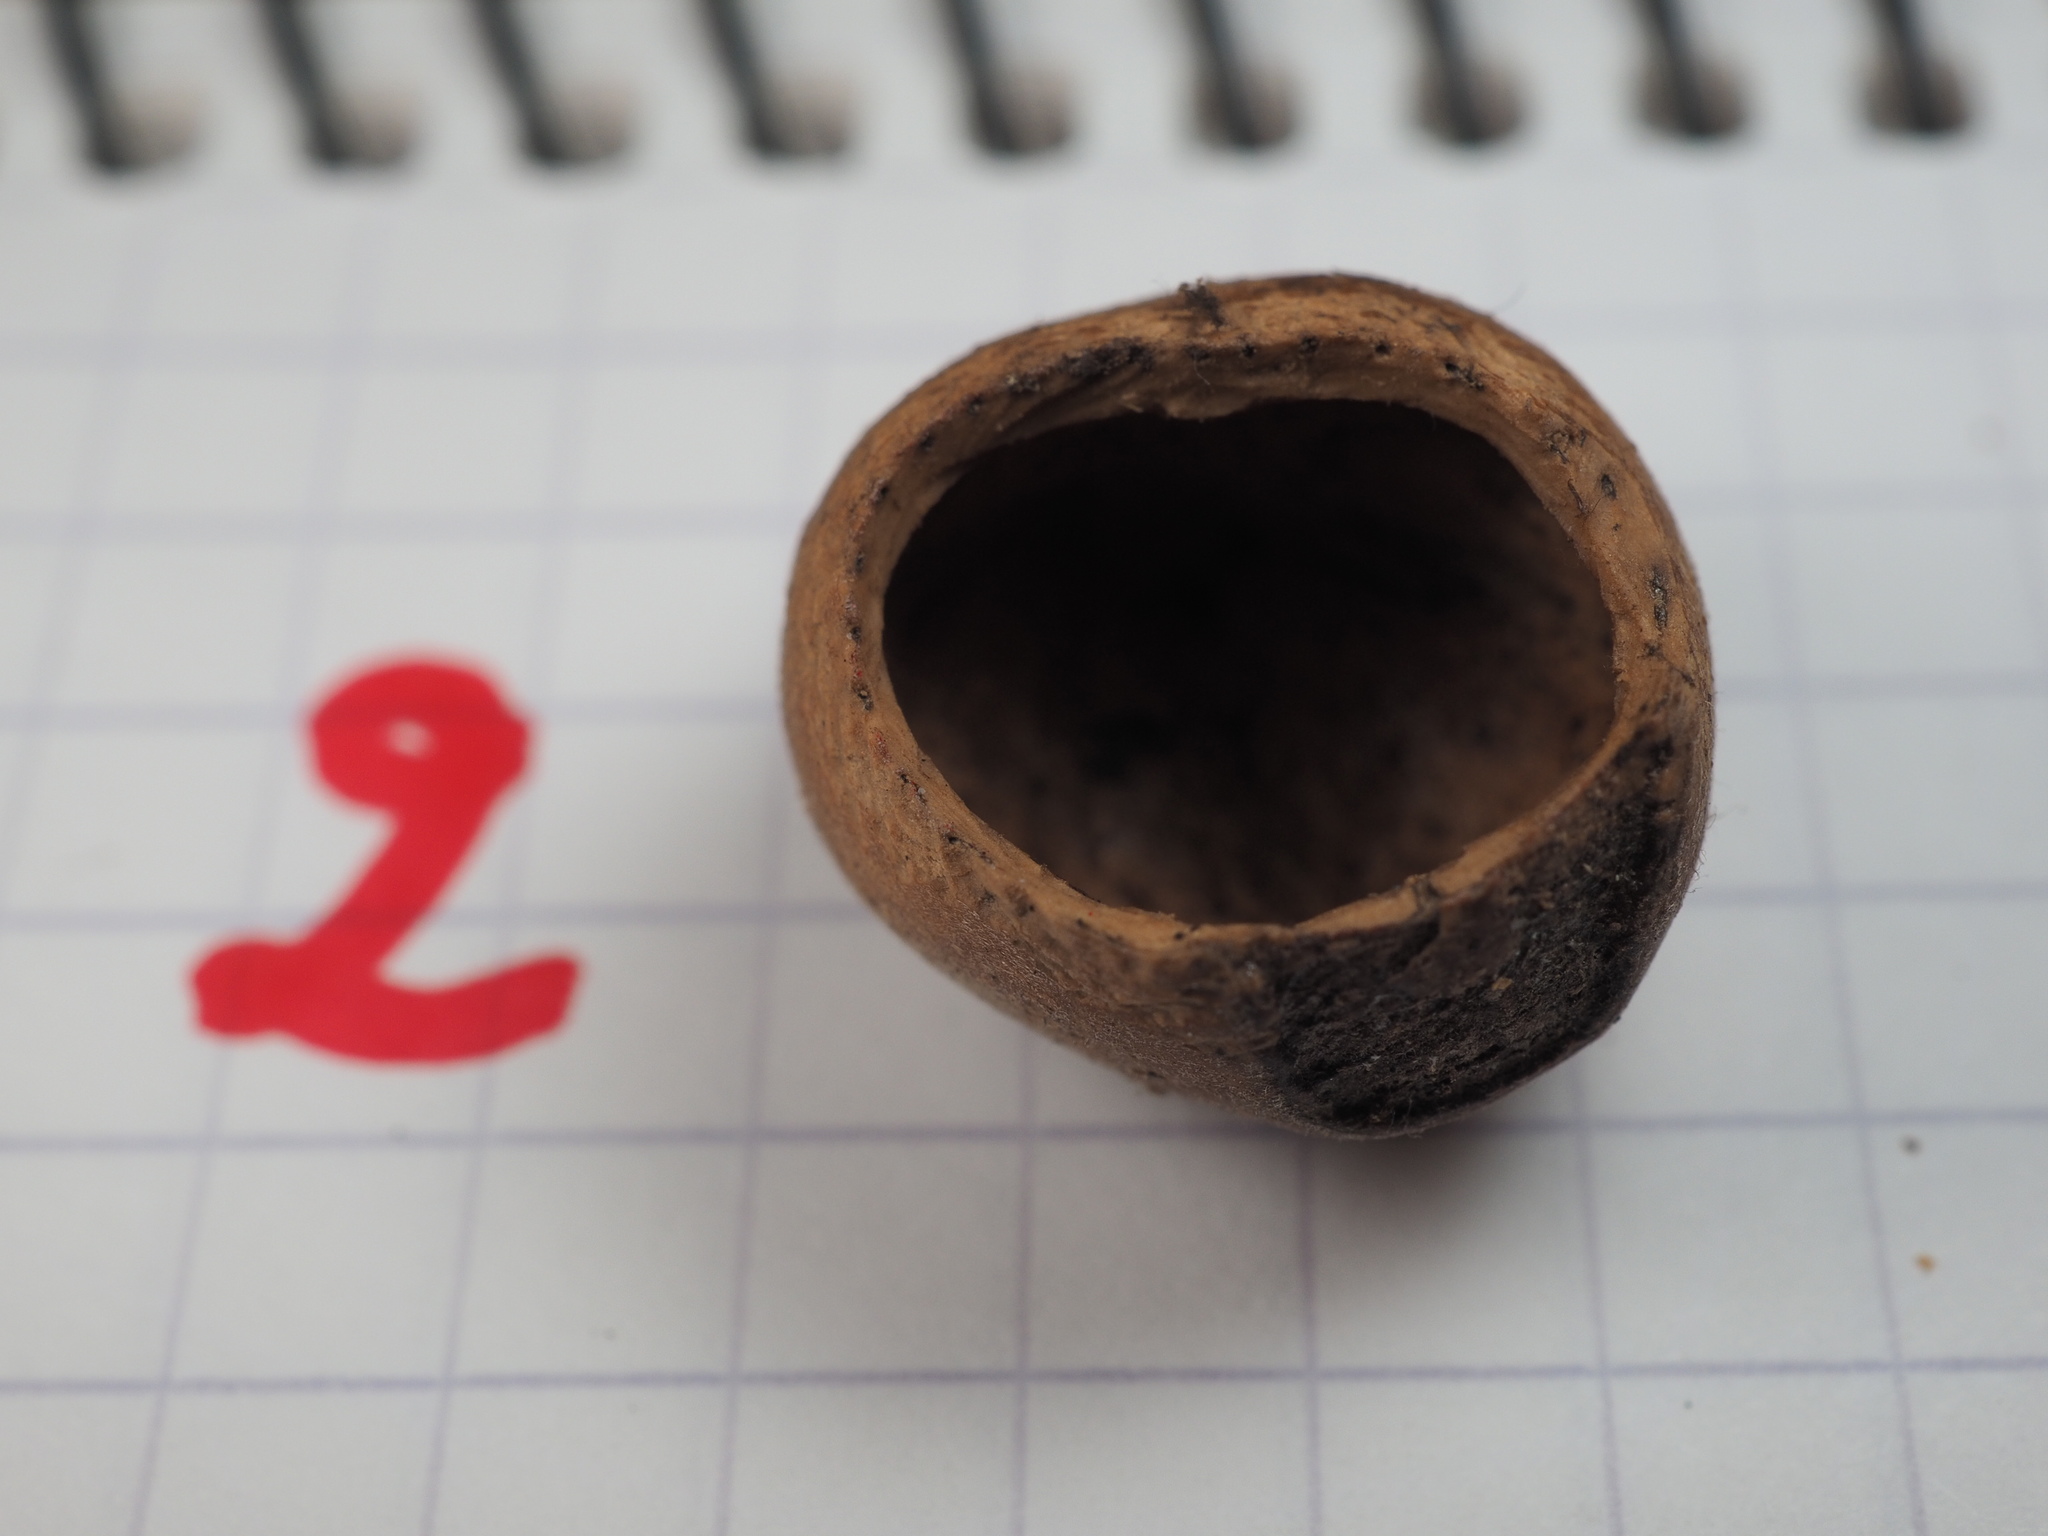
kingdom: Animalia
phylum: Chordata
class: Mammalia
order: Rodentia
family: Gliridae
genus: Muscardinus
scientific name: Muscardinus avellanarius
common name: Hazel dormouse
